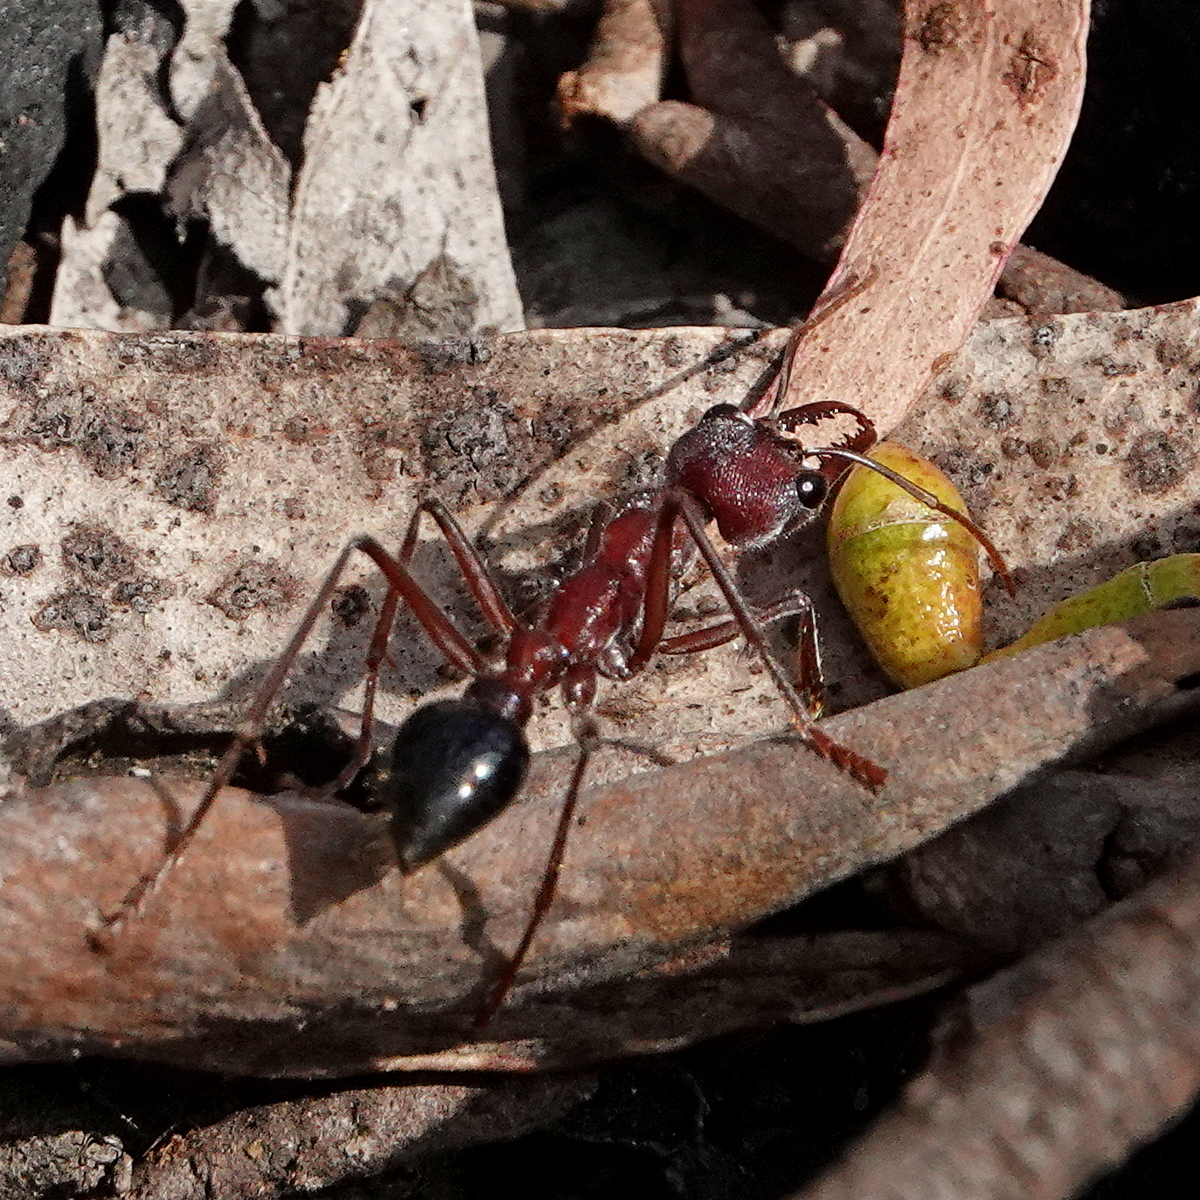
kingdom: Animalia
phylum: Arthropoda
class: Insecta
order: Hymenoptera
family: Formicidae
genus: Myrmecia
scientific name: Myrmecia simillima
